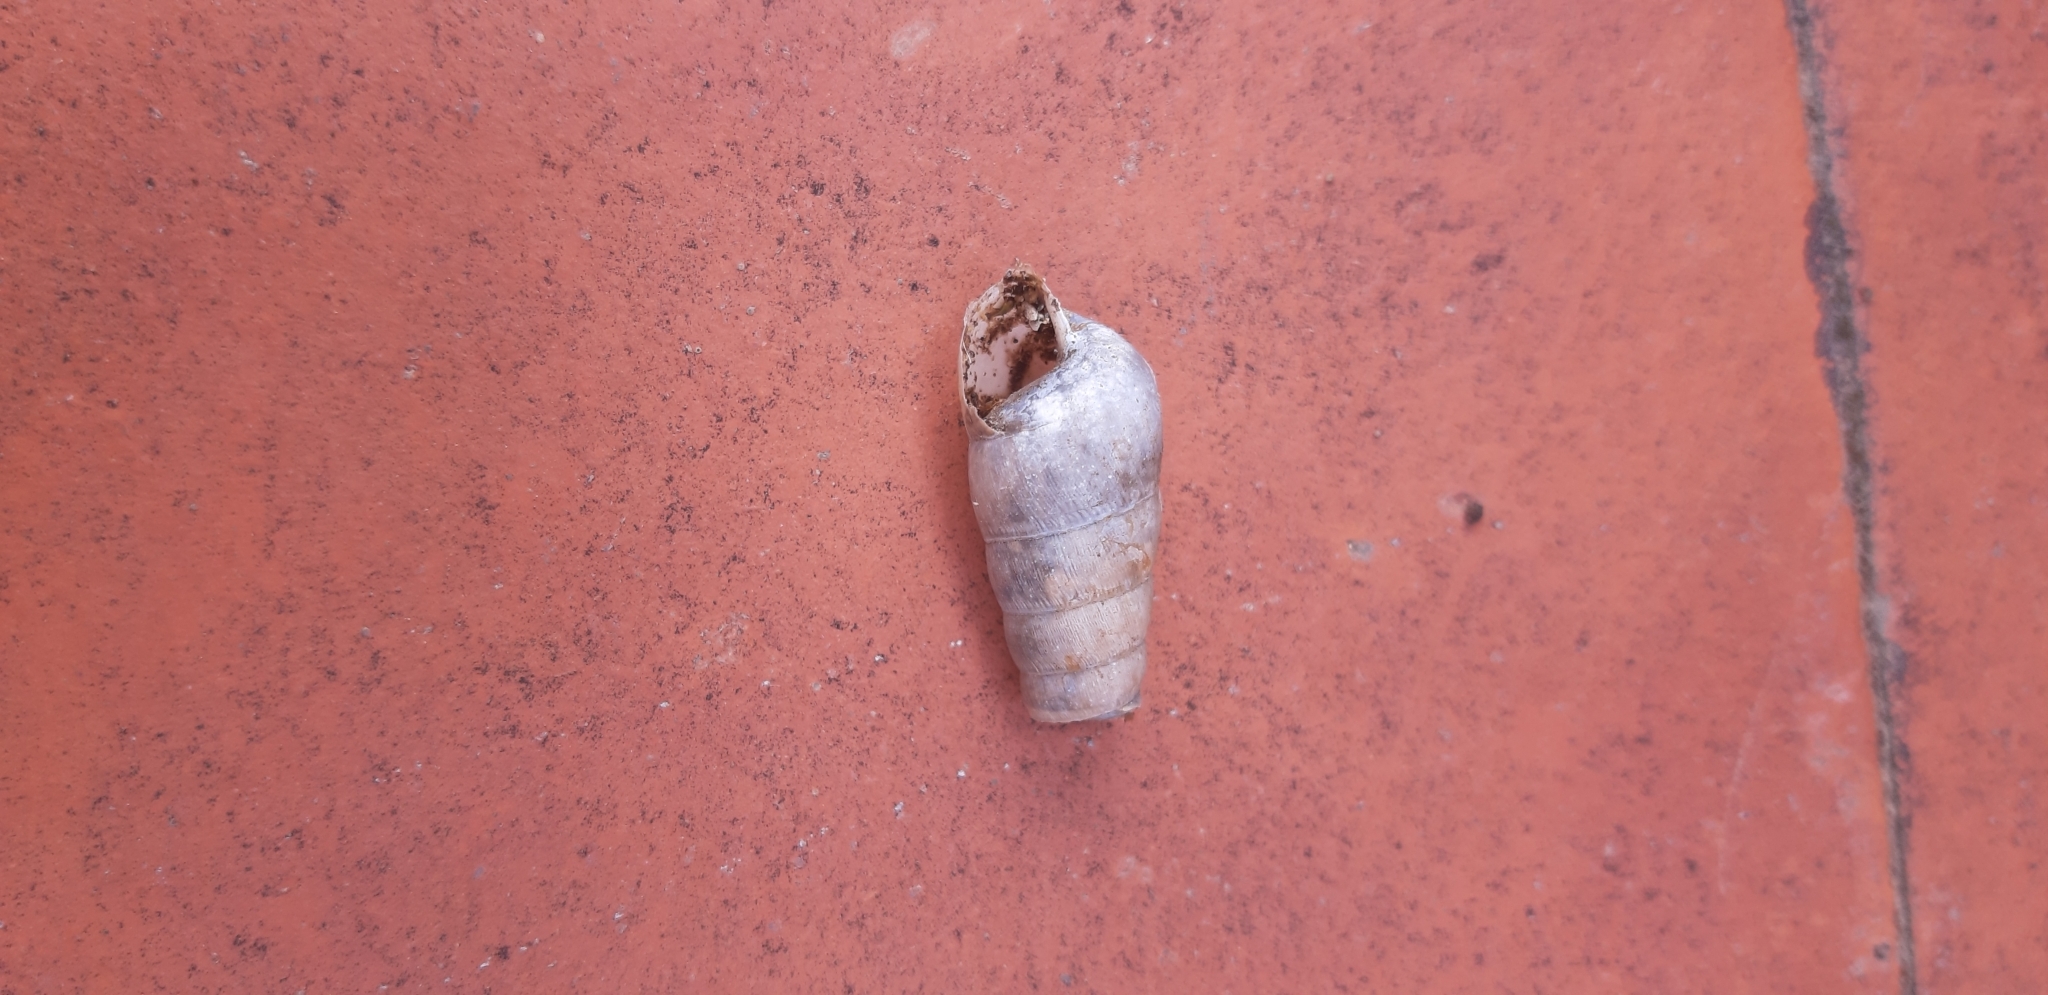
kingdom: Animalia
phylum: Mollusca
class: Gastropoda
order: Stylommatophora
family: Achatinidae
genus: Rumina
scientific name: Rumina decollata
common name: Decollate snail
